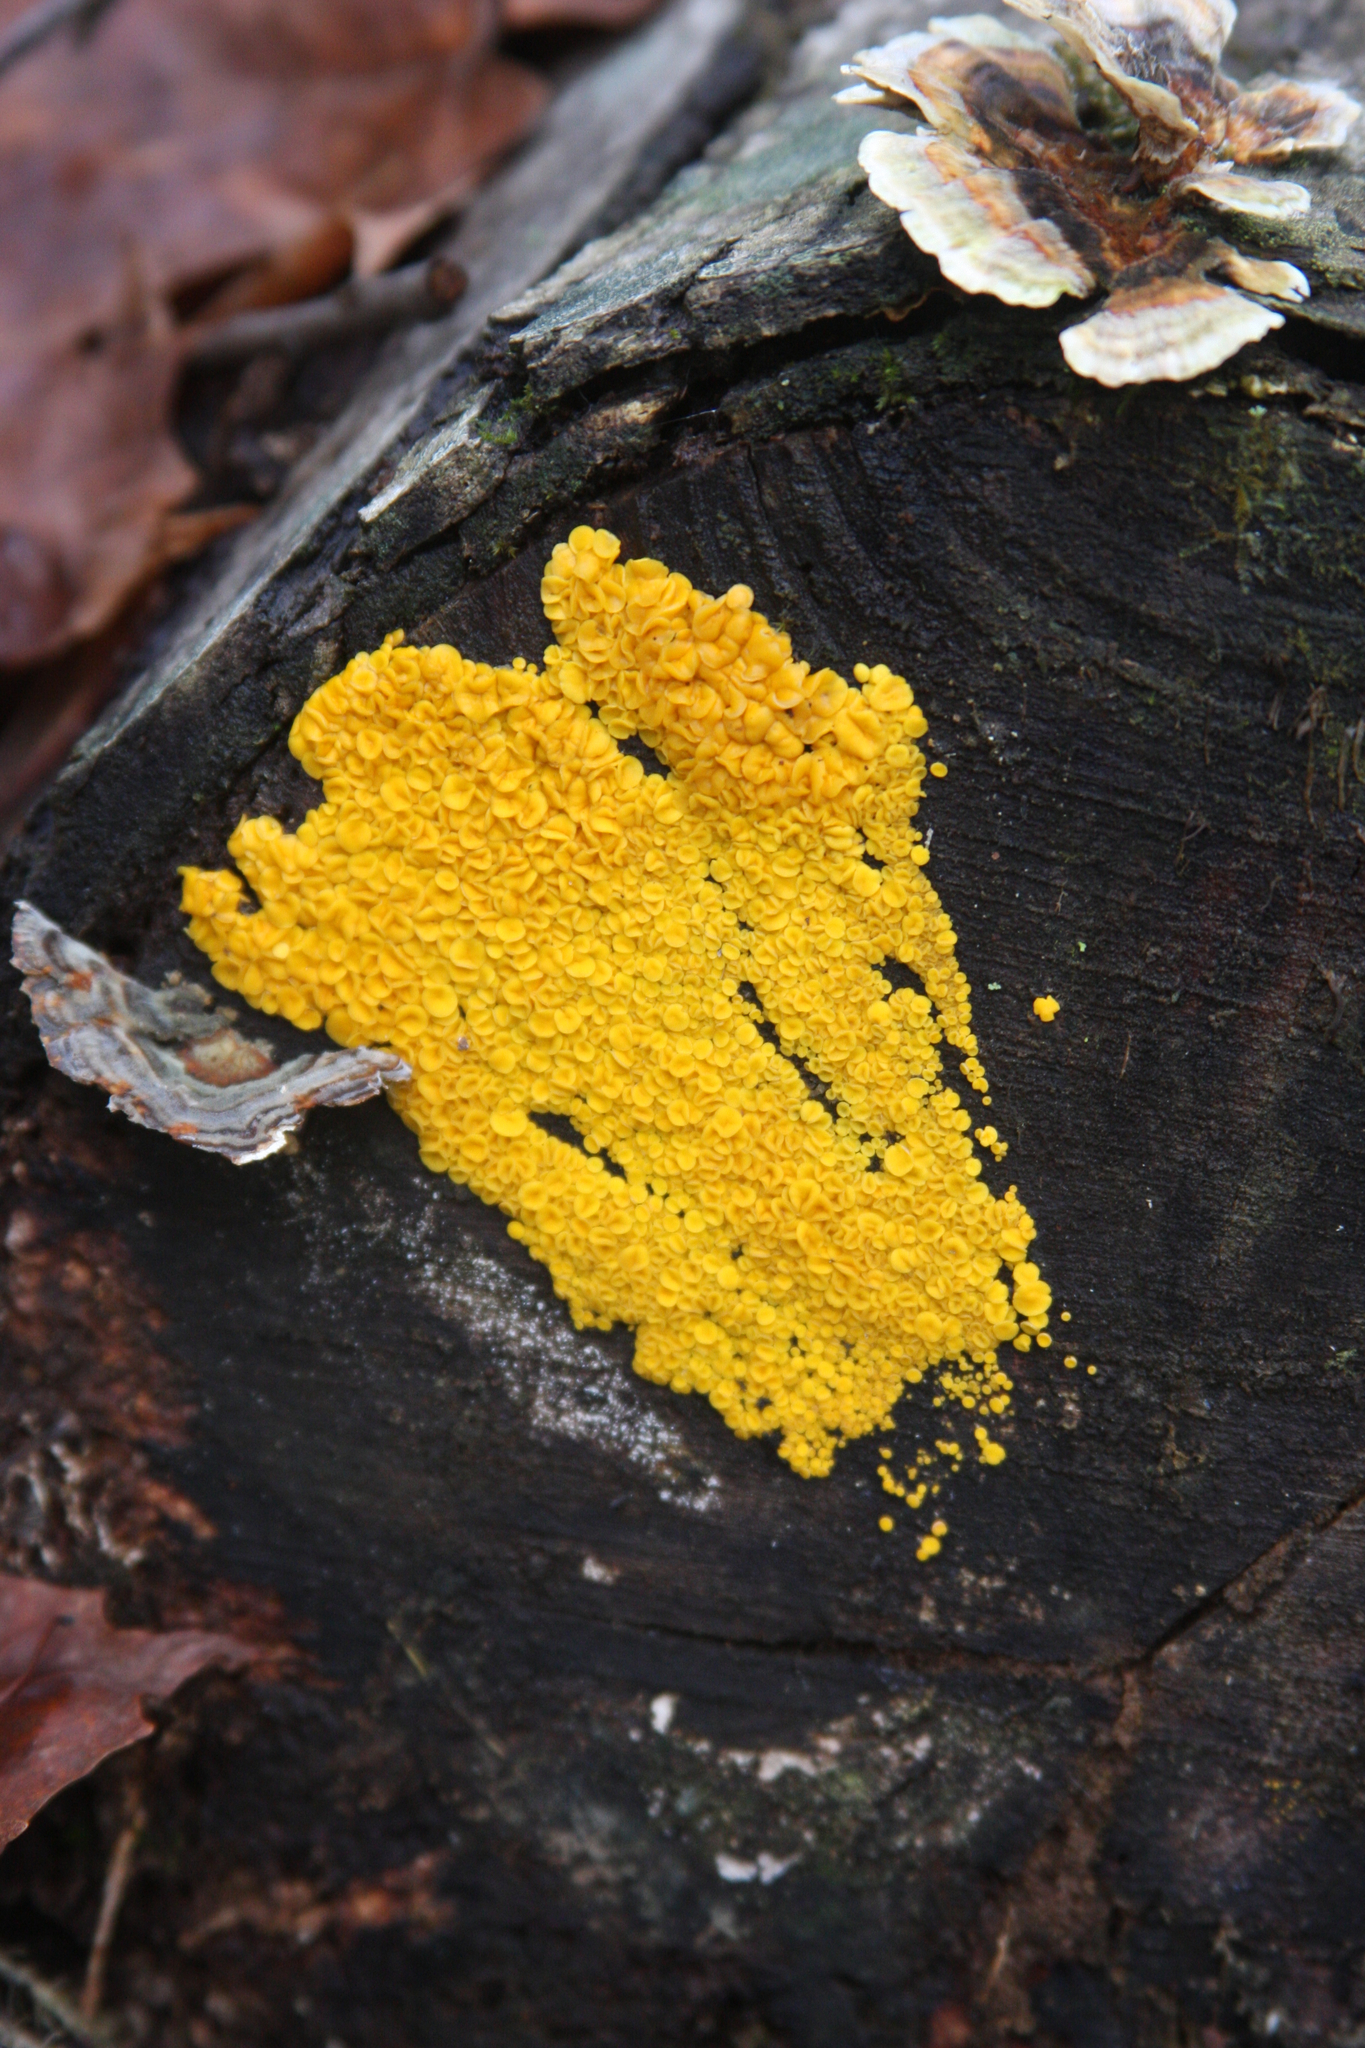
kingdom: Fungi
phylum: Ascomycota
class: Leotiomycetes
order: Helotiales
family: Pezizellaceae
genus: Calycina
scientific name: Calycina citrina
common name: Yellow fairy cups
